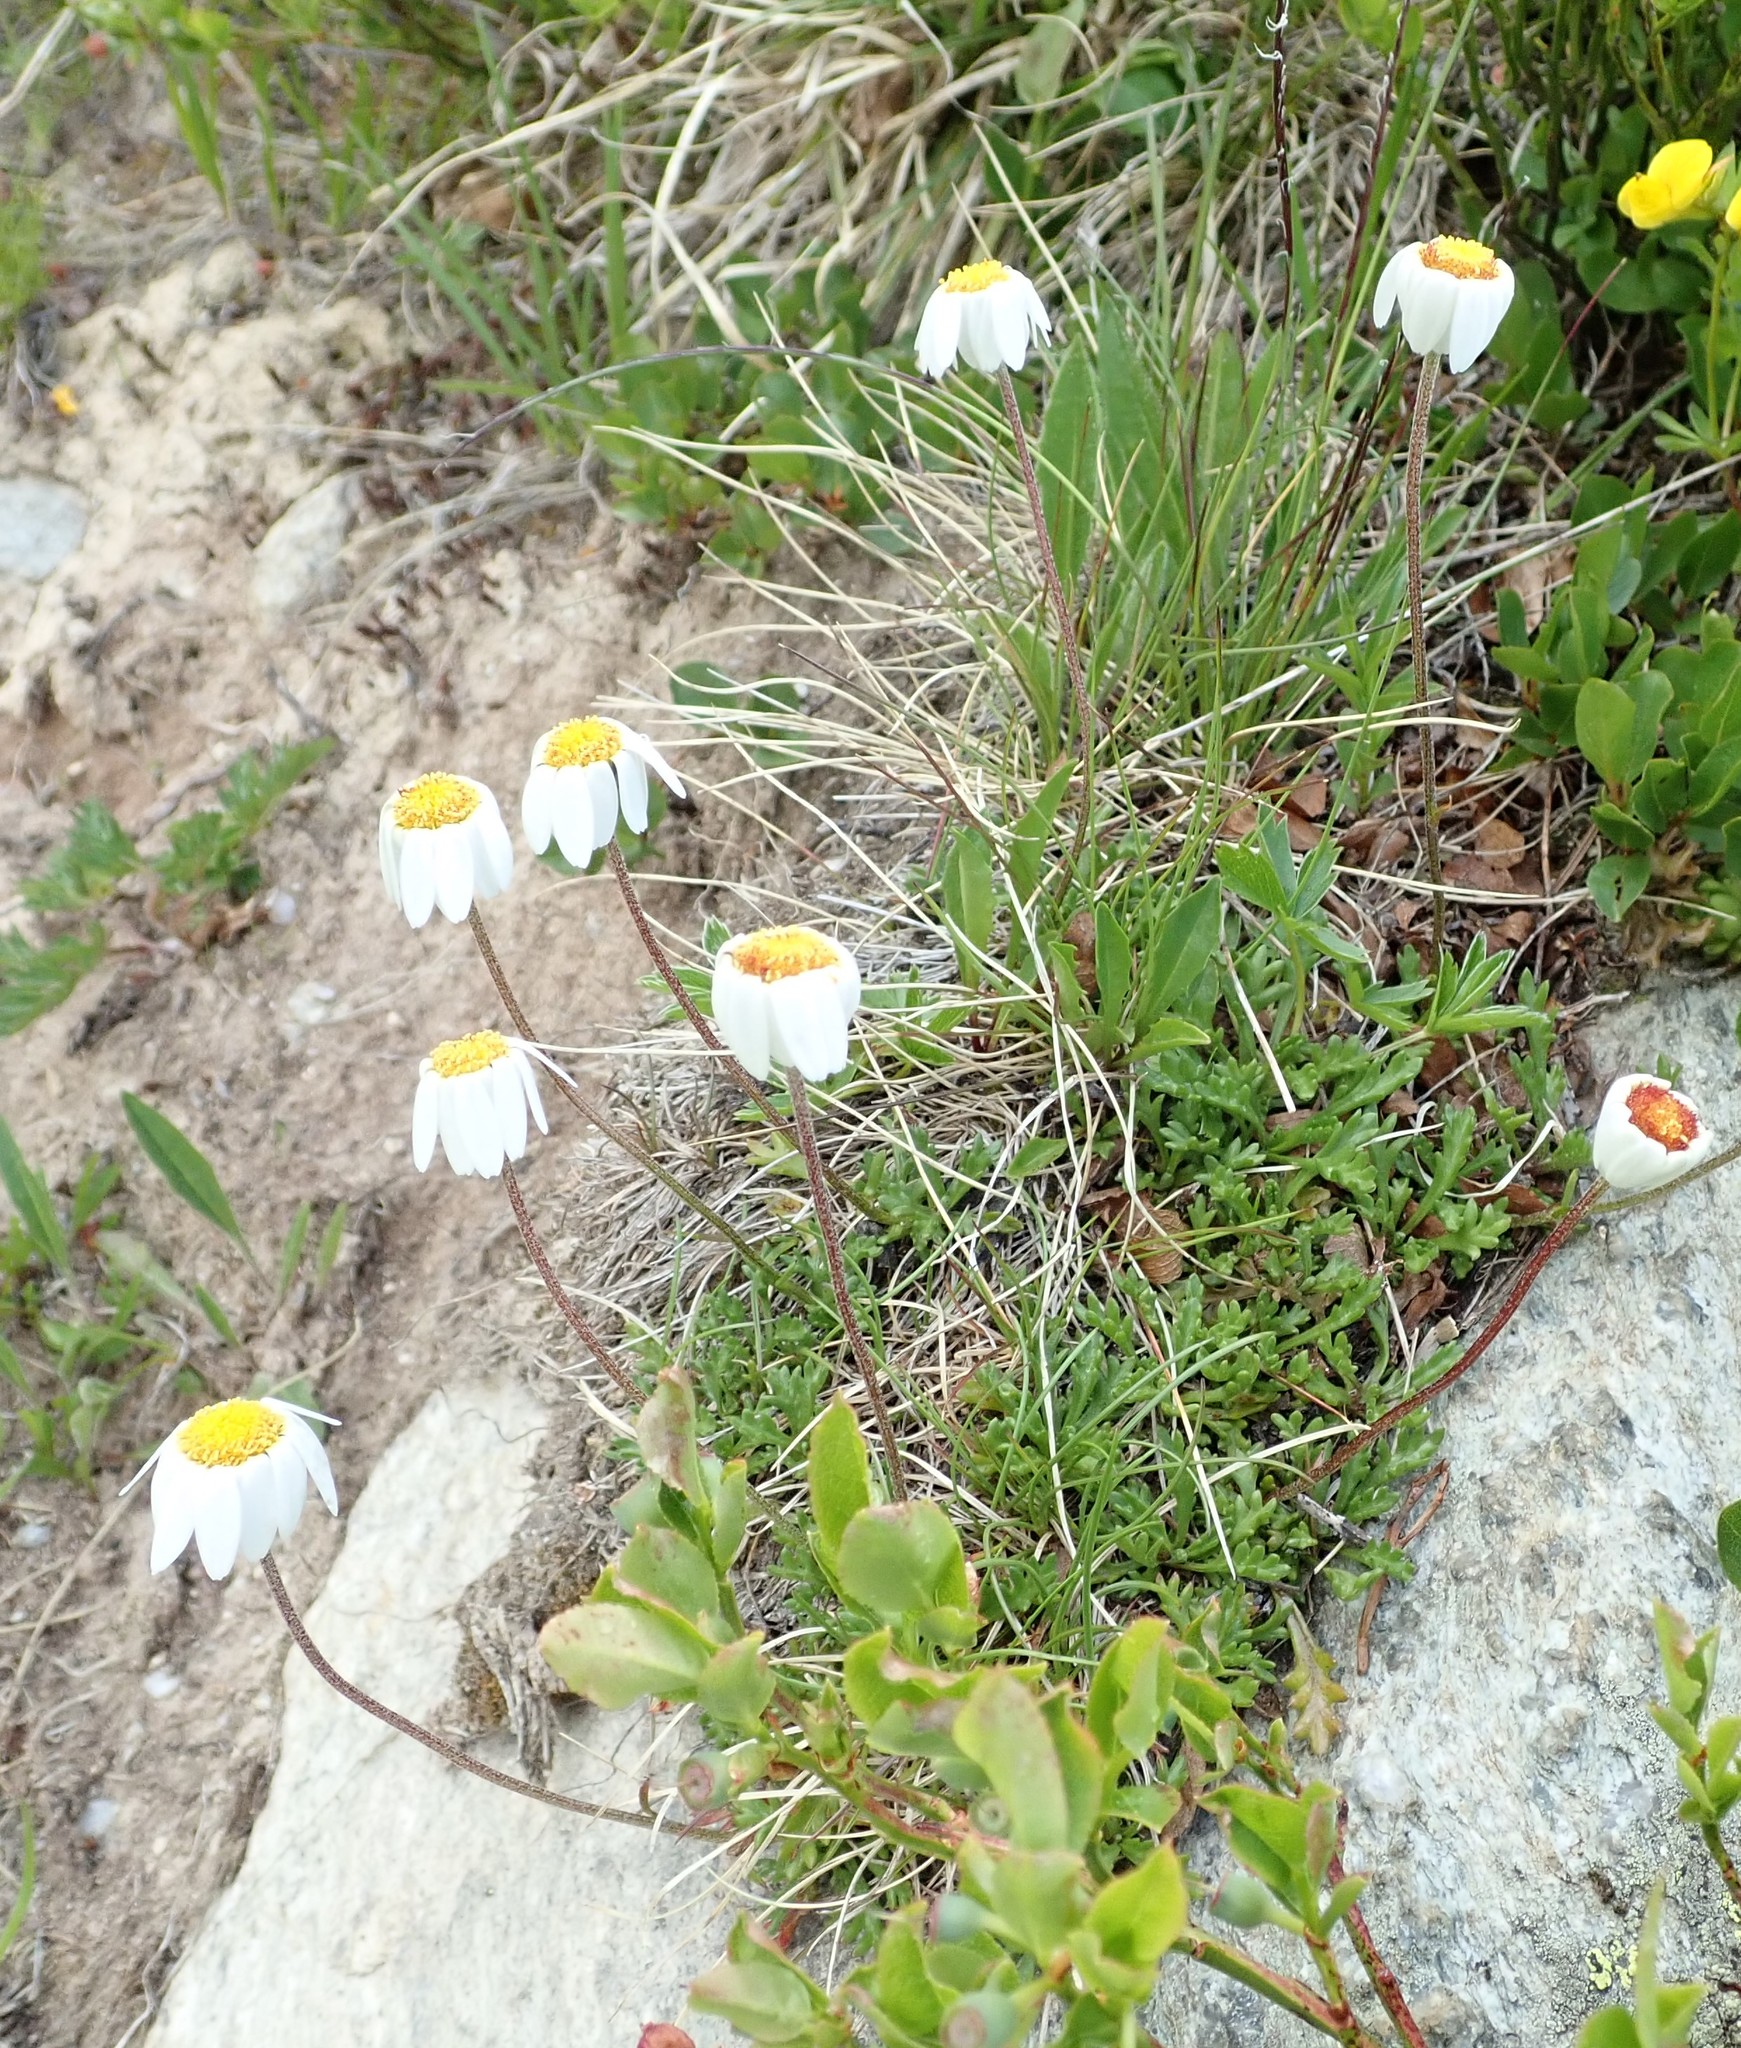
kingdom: Plantae
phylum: Tracheophyta
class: Magnoliopsida
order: Asterales
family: Asteraceae
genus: Leucanthemopsis
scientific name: Leucanthemopsis alpina
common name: Alpine moon daisy
